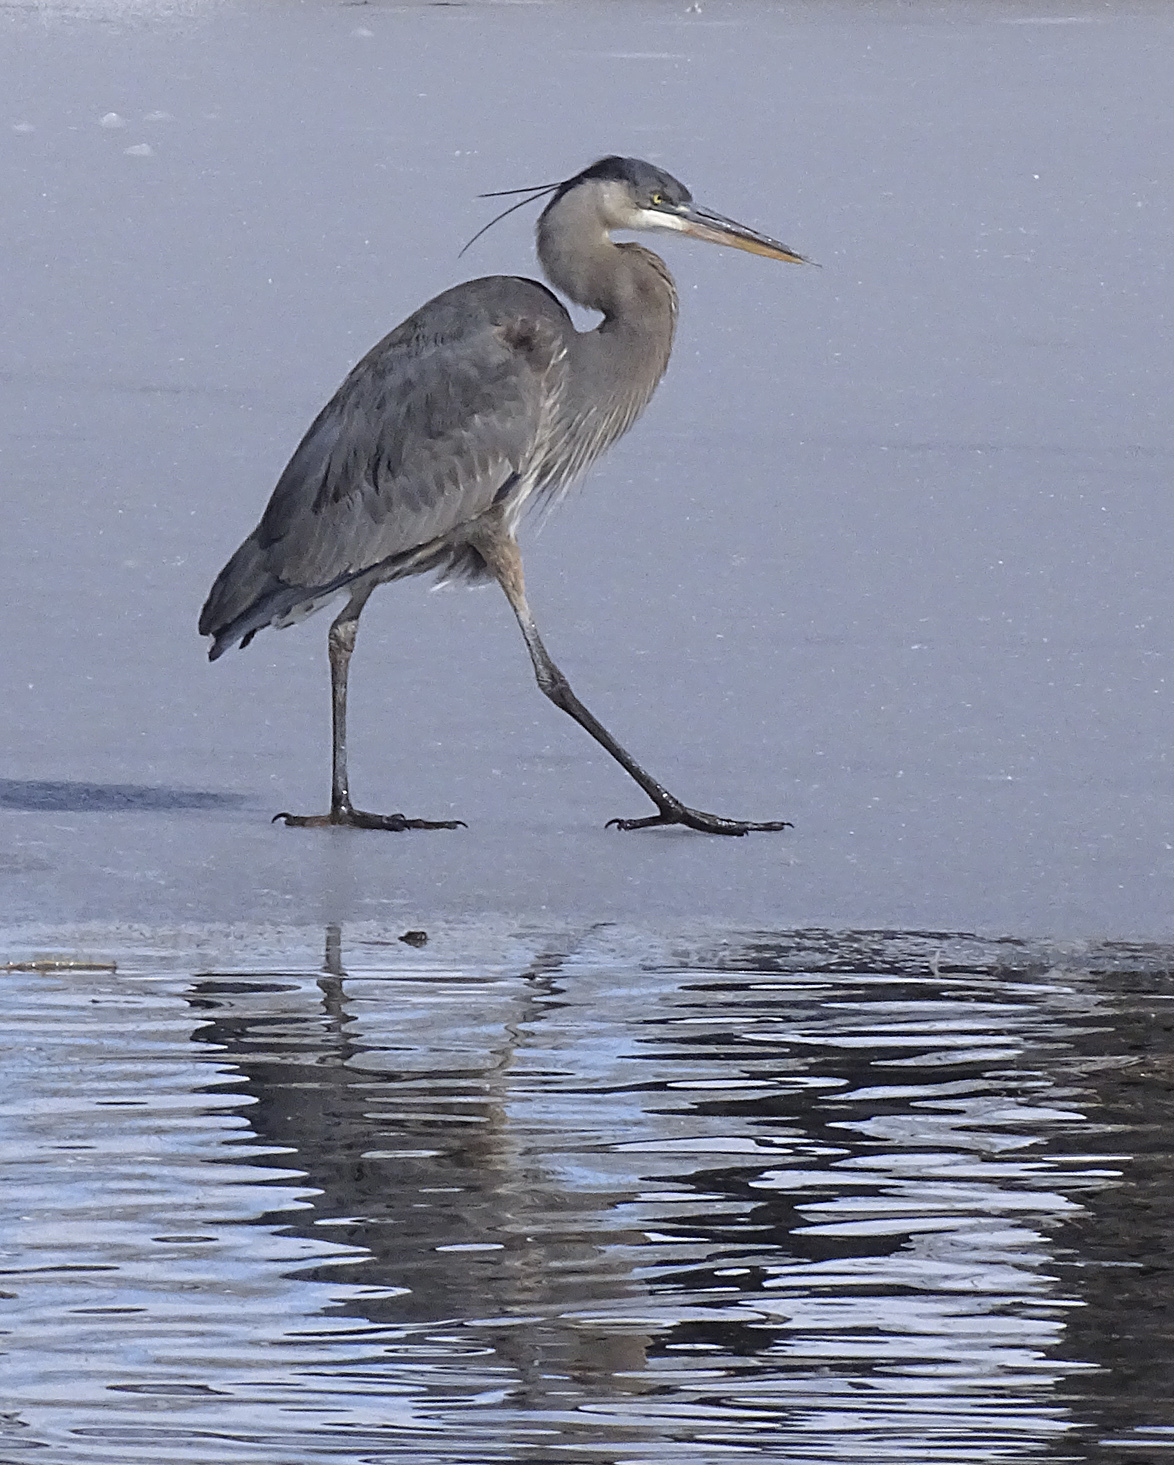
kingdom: Animalia
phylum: Chordata
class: Aves
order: Pelecaniformes
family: Ardeidae
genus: Ardea
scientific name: Ardea herodias
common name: Great blue heron
